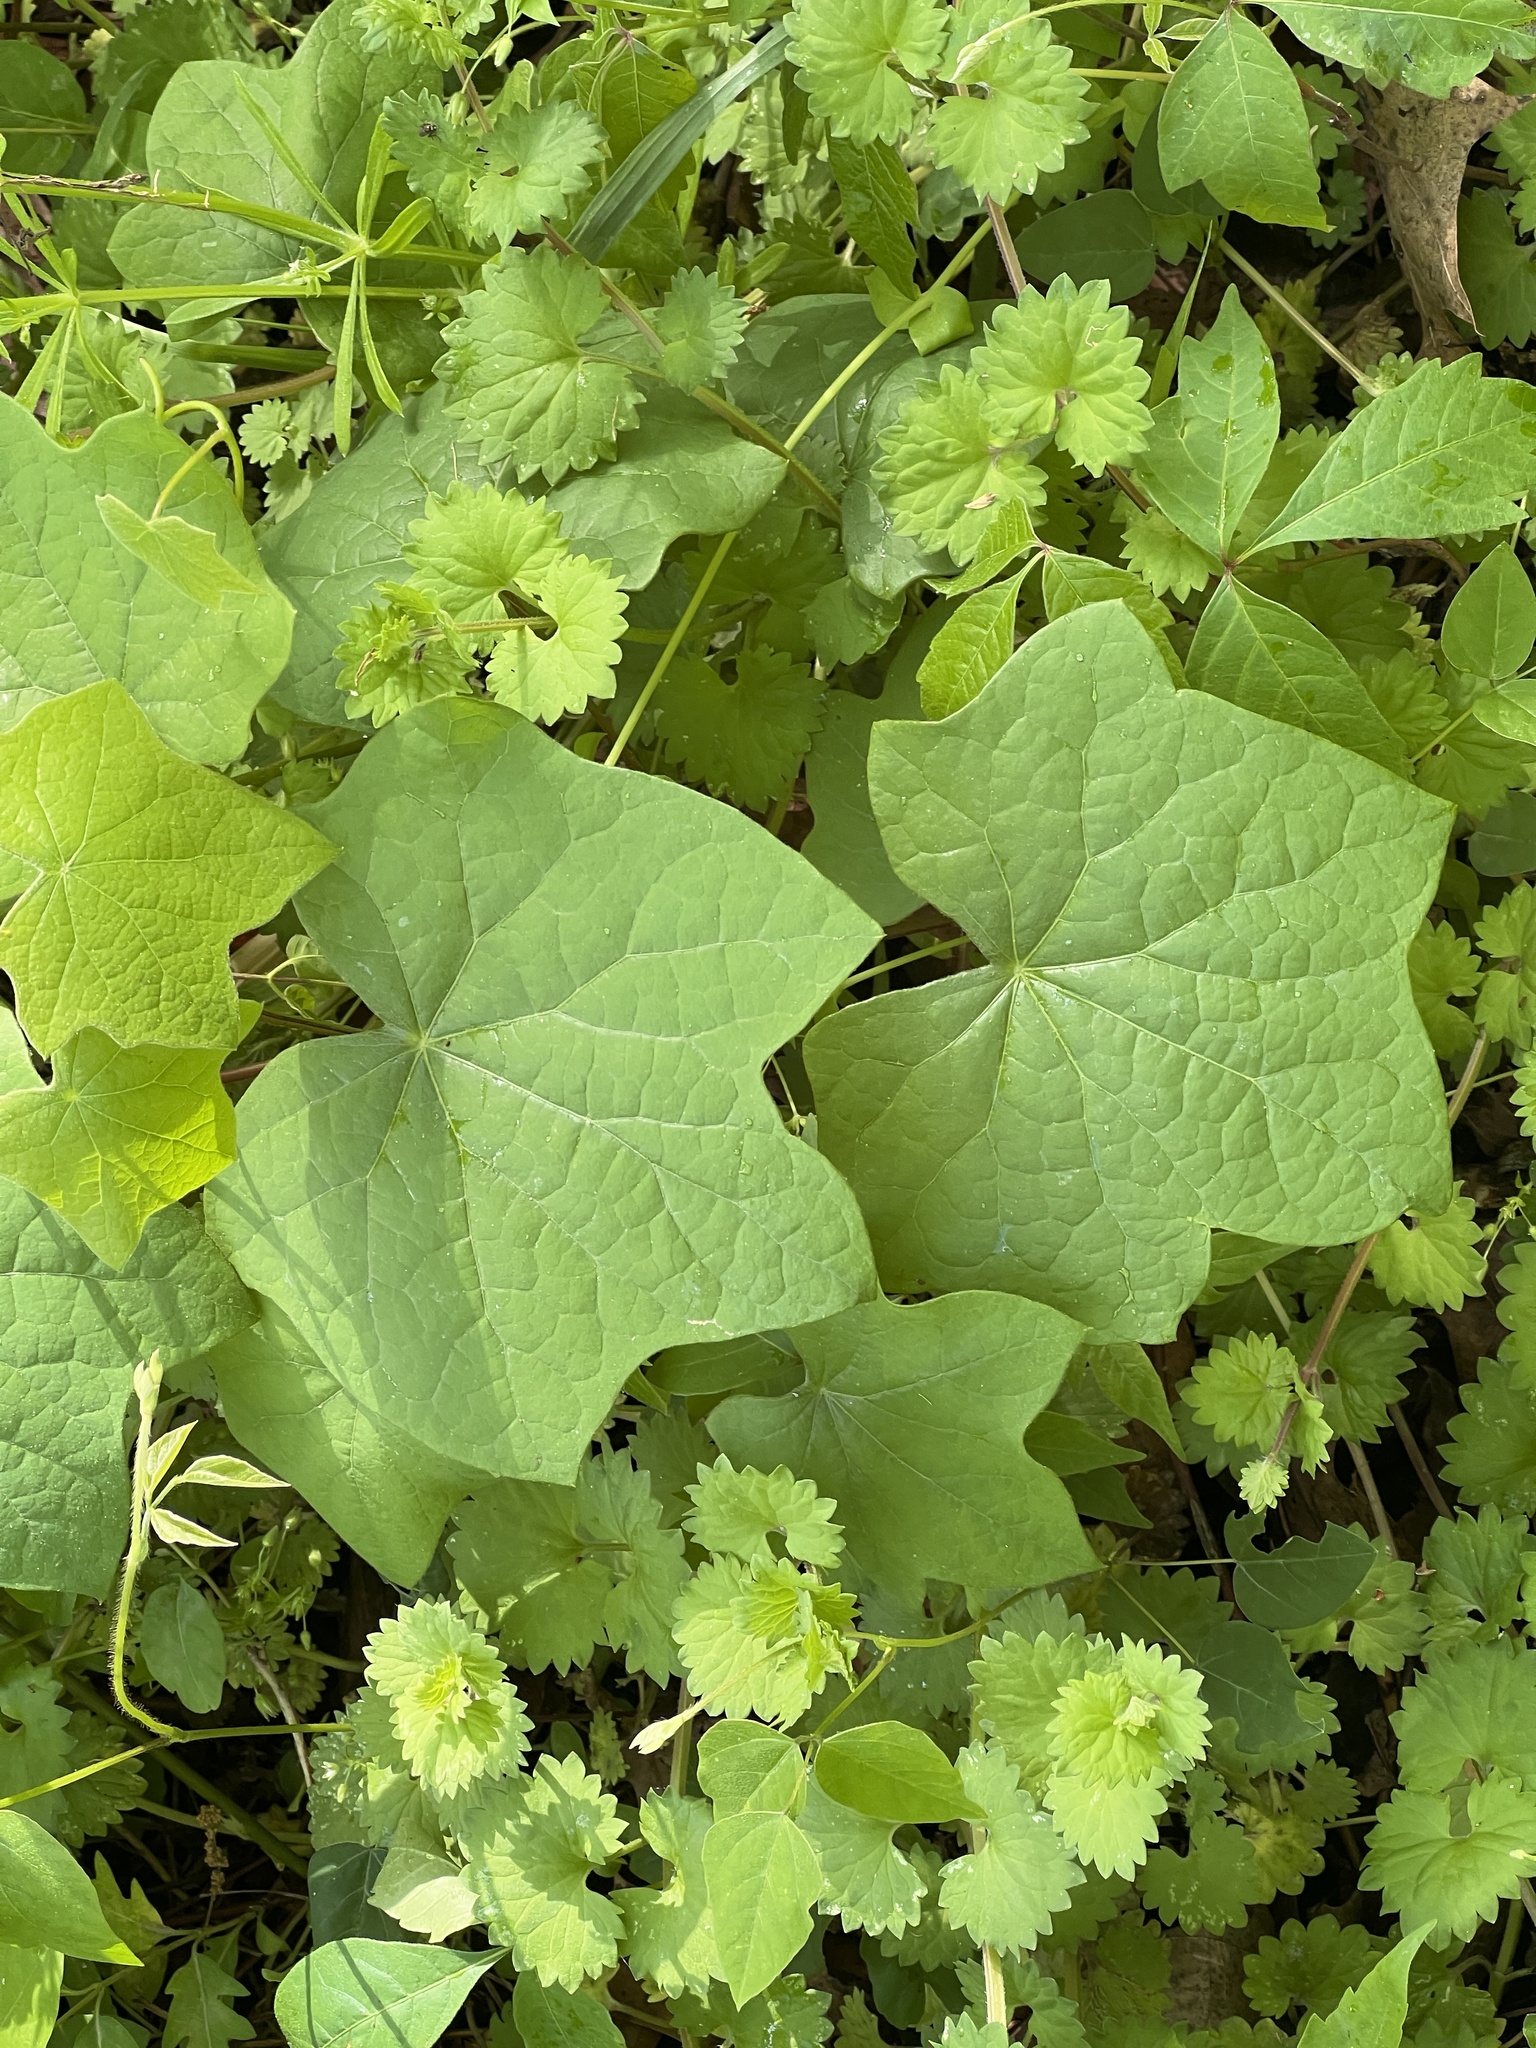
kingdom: Plantae
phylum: Tracheophyta
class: Magnoliopsida
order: Ranunculales
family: Menispermaceae
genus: Menispermum
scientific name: Menispermum canadense
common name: Moonseed
